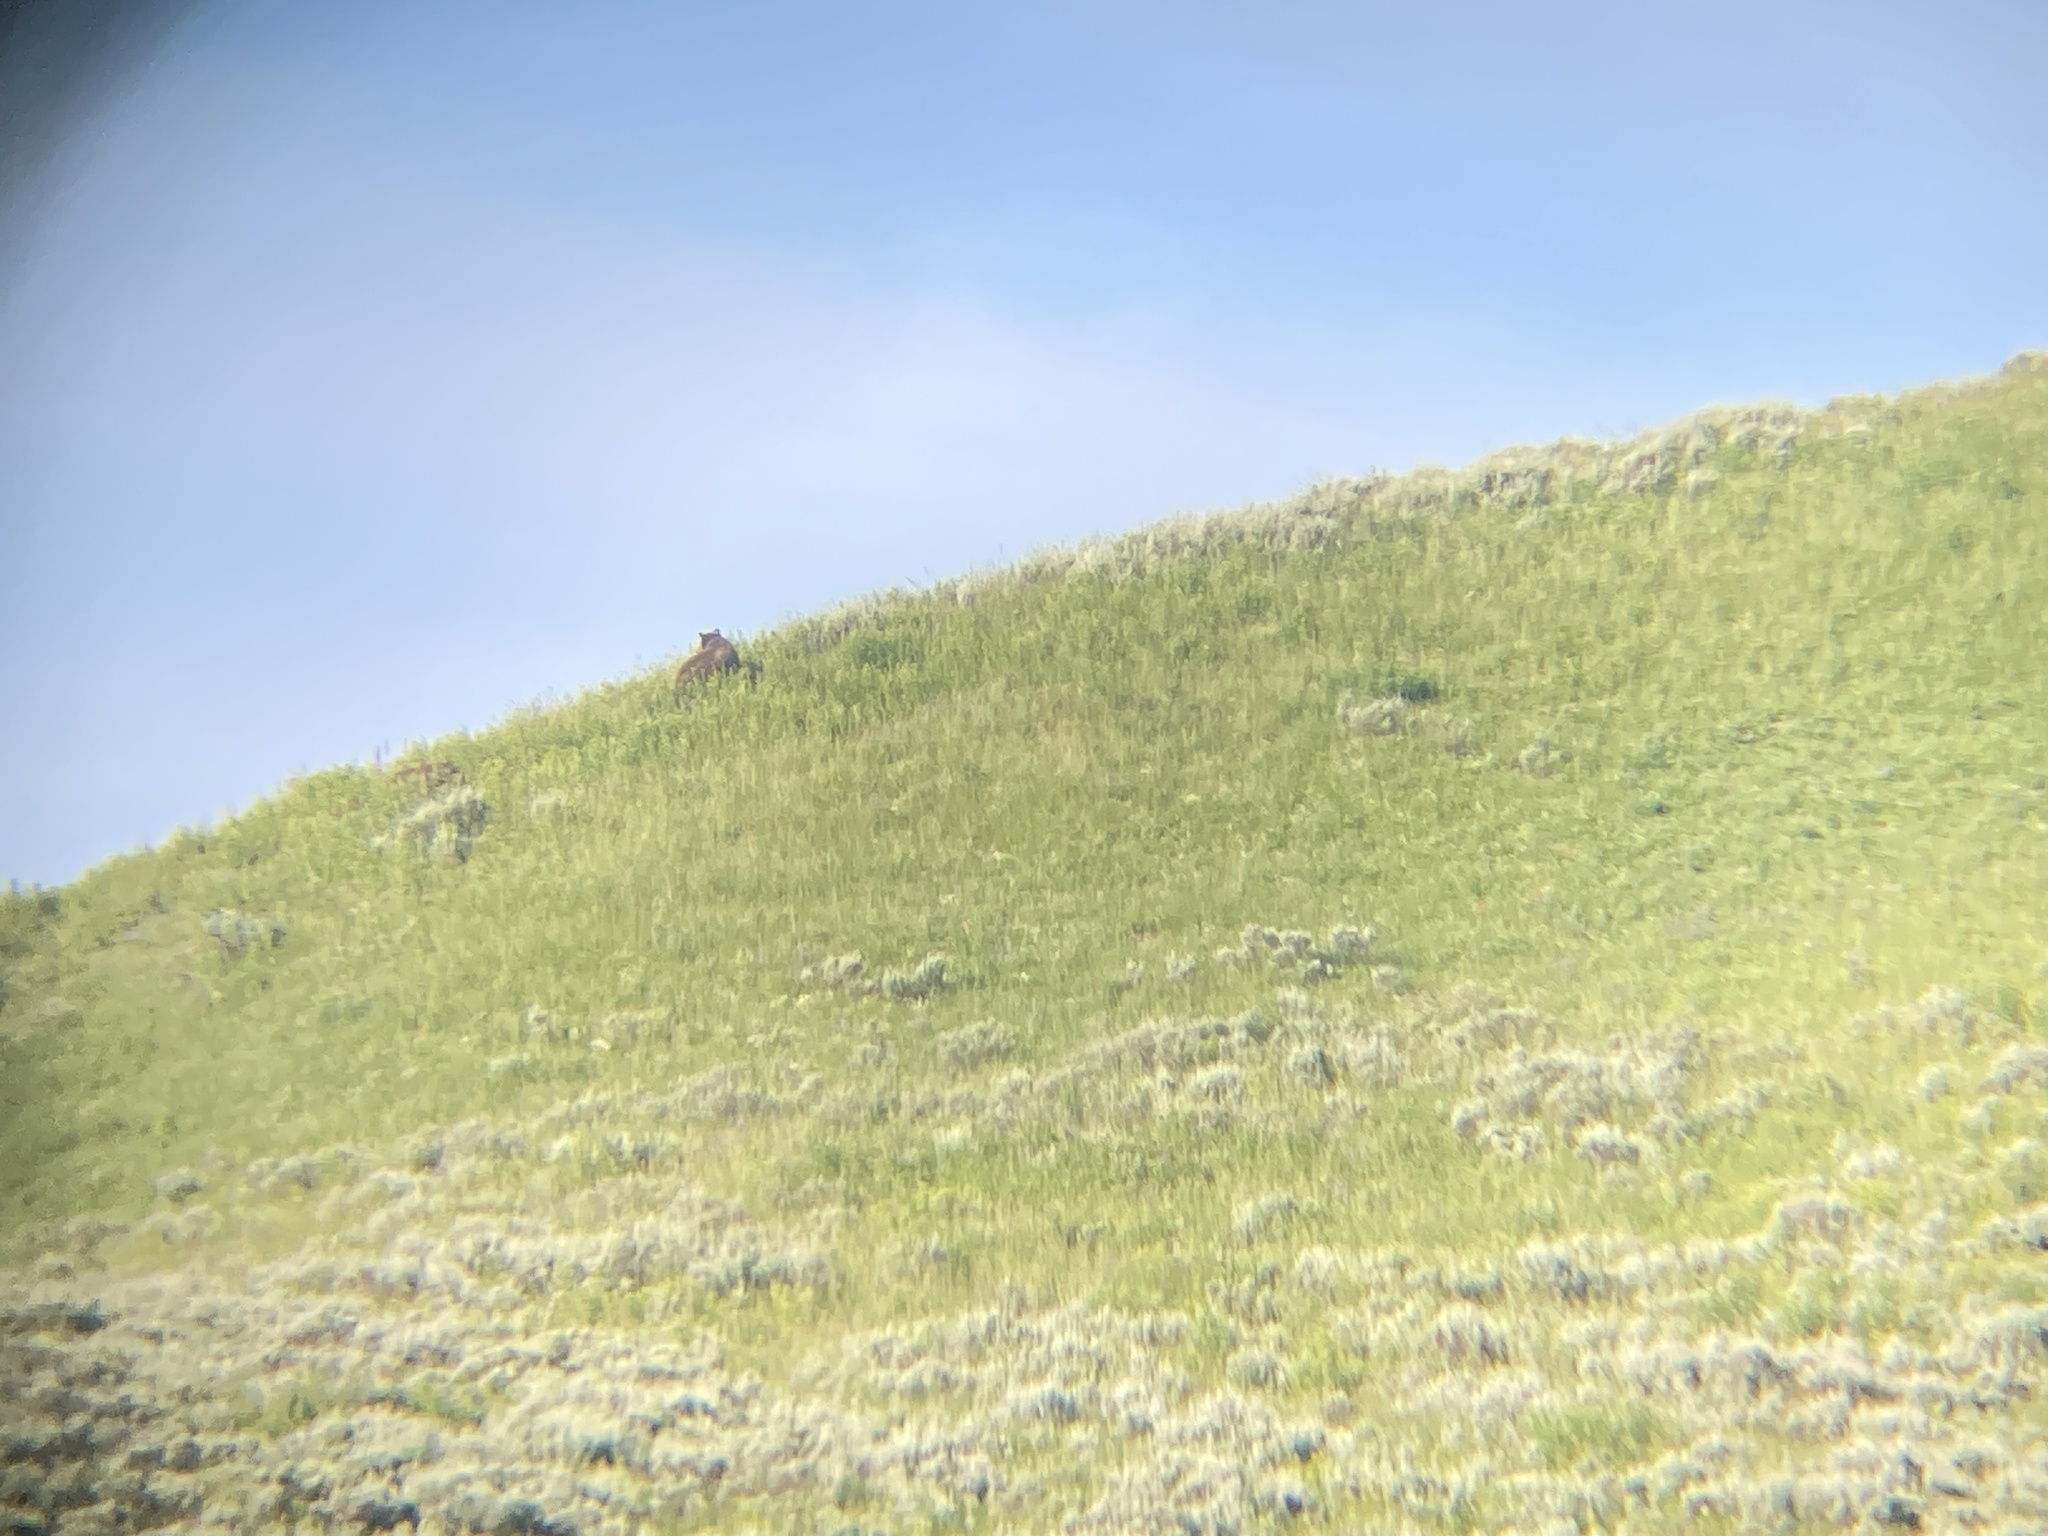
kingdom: Animalia
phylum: Chordata
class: Mammalia
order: Carnivora
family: Ursidae
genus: Ursus
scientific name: Ursus arctos
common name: Brown bear
